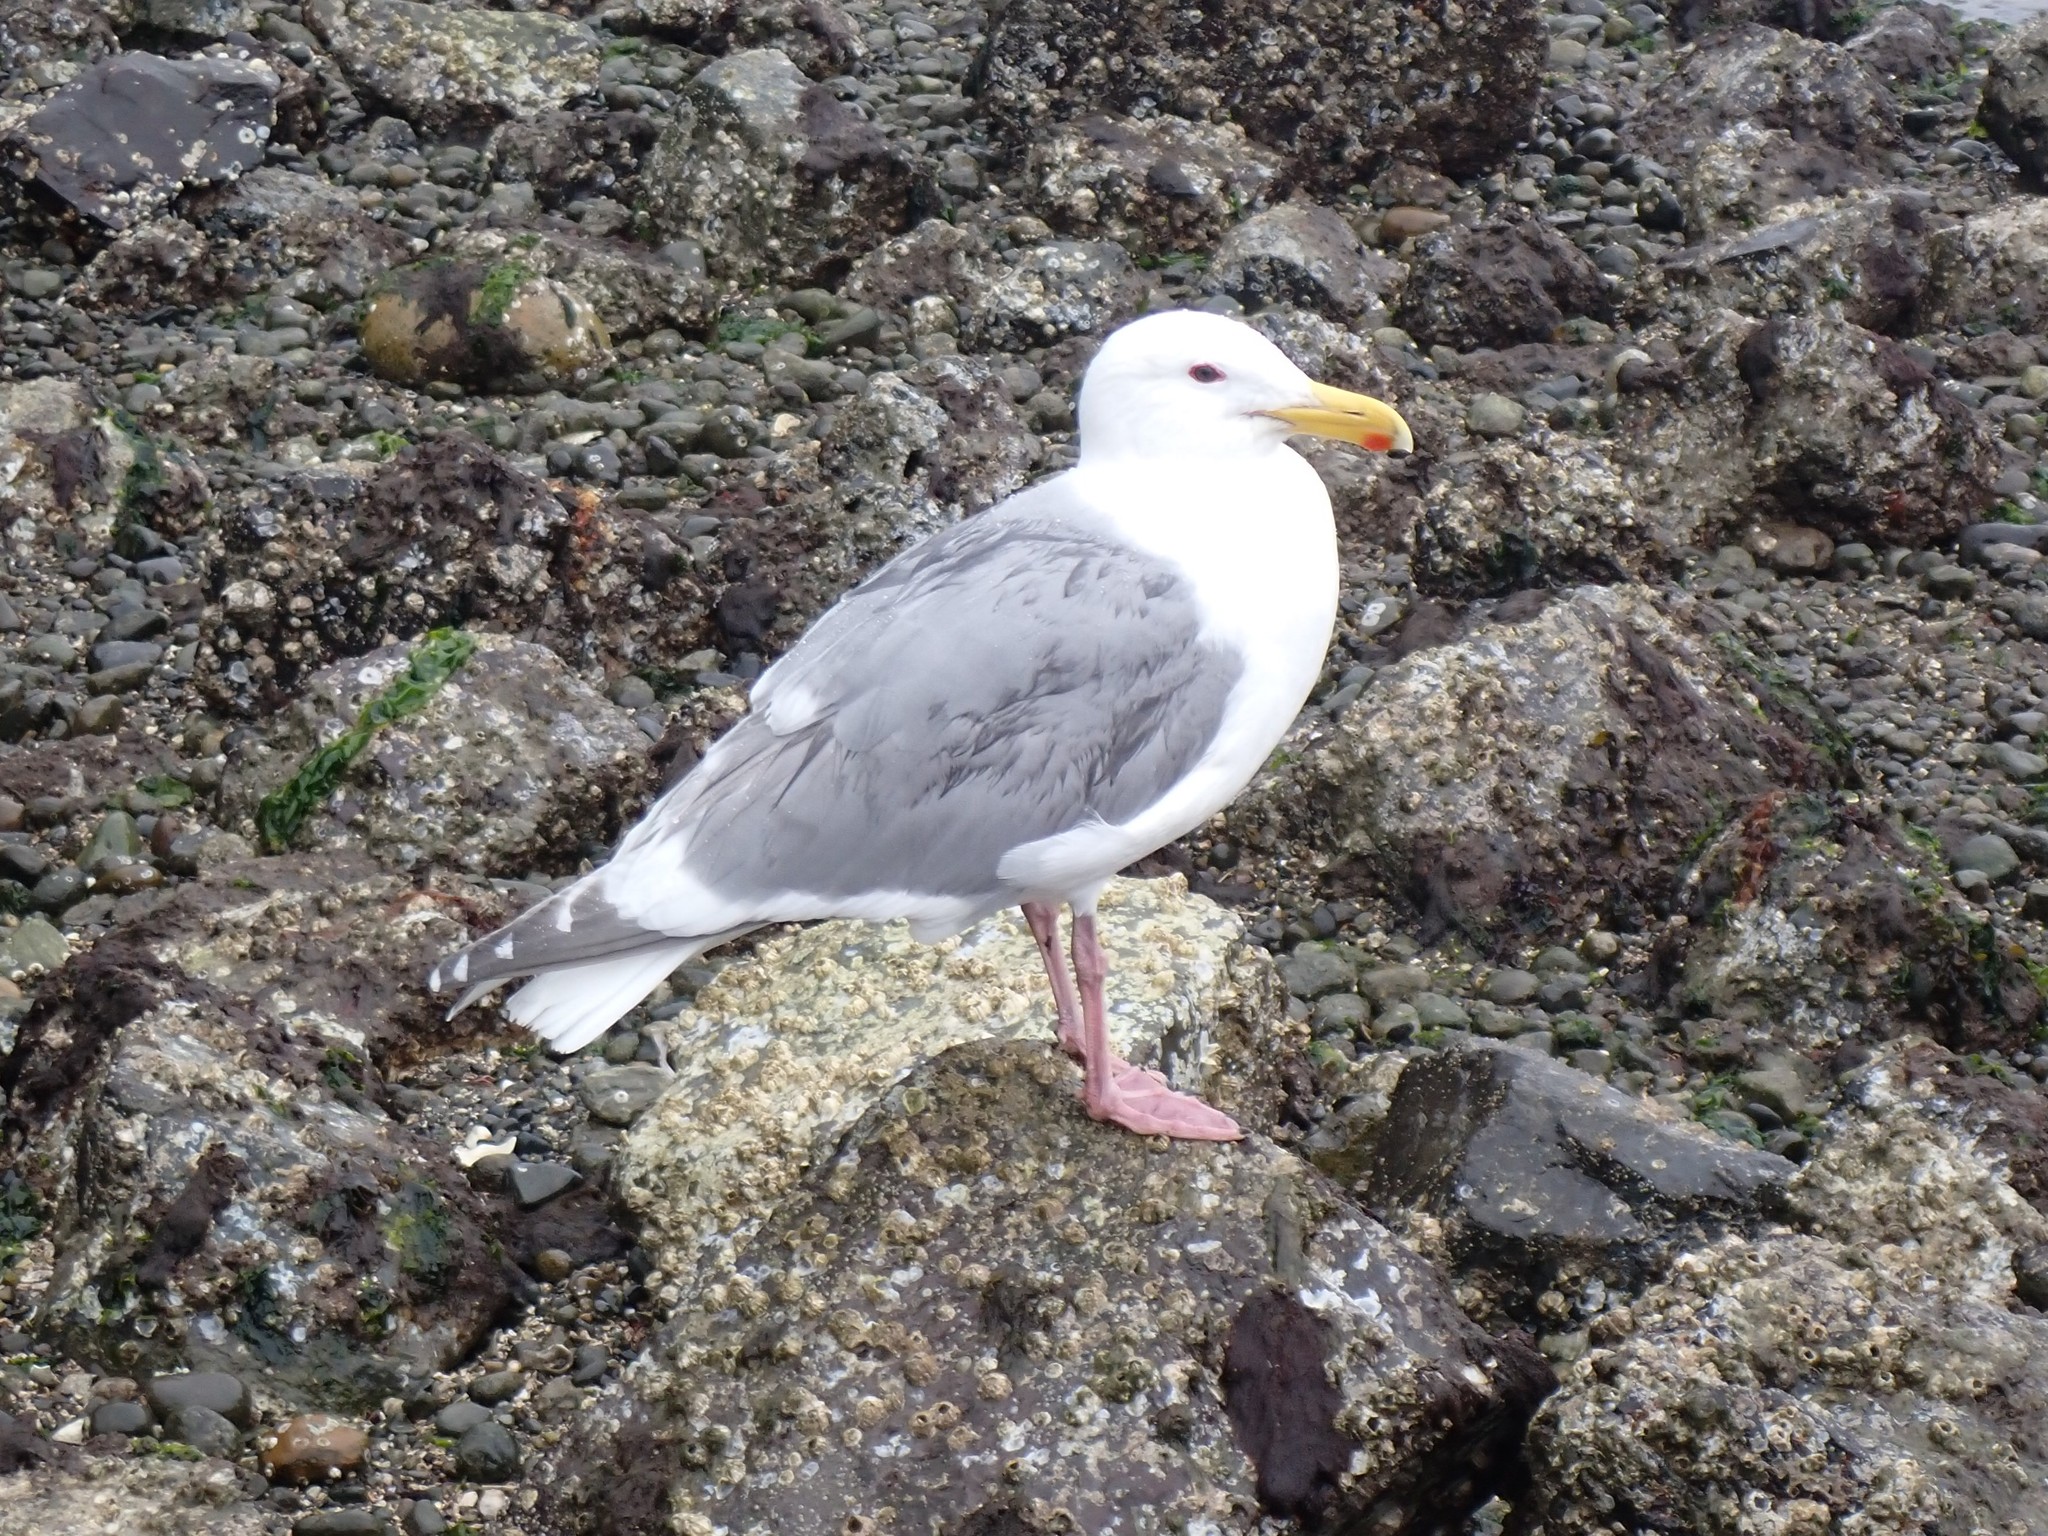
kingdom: Animalia
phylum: Chordata
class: Aves
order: Charadriiformes
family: Laridae
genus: Larus
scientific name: Larus
